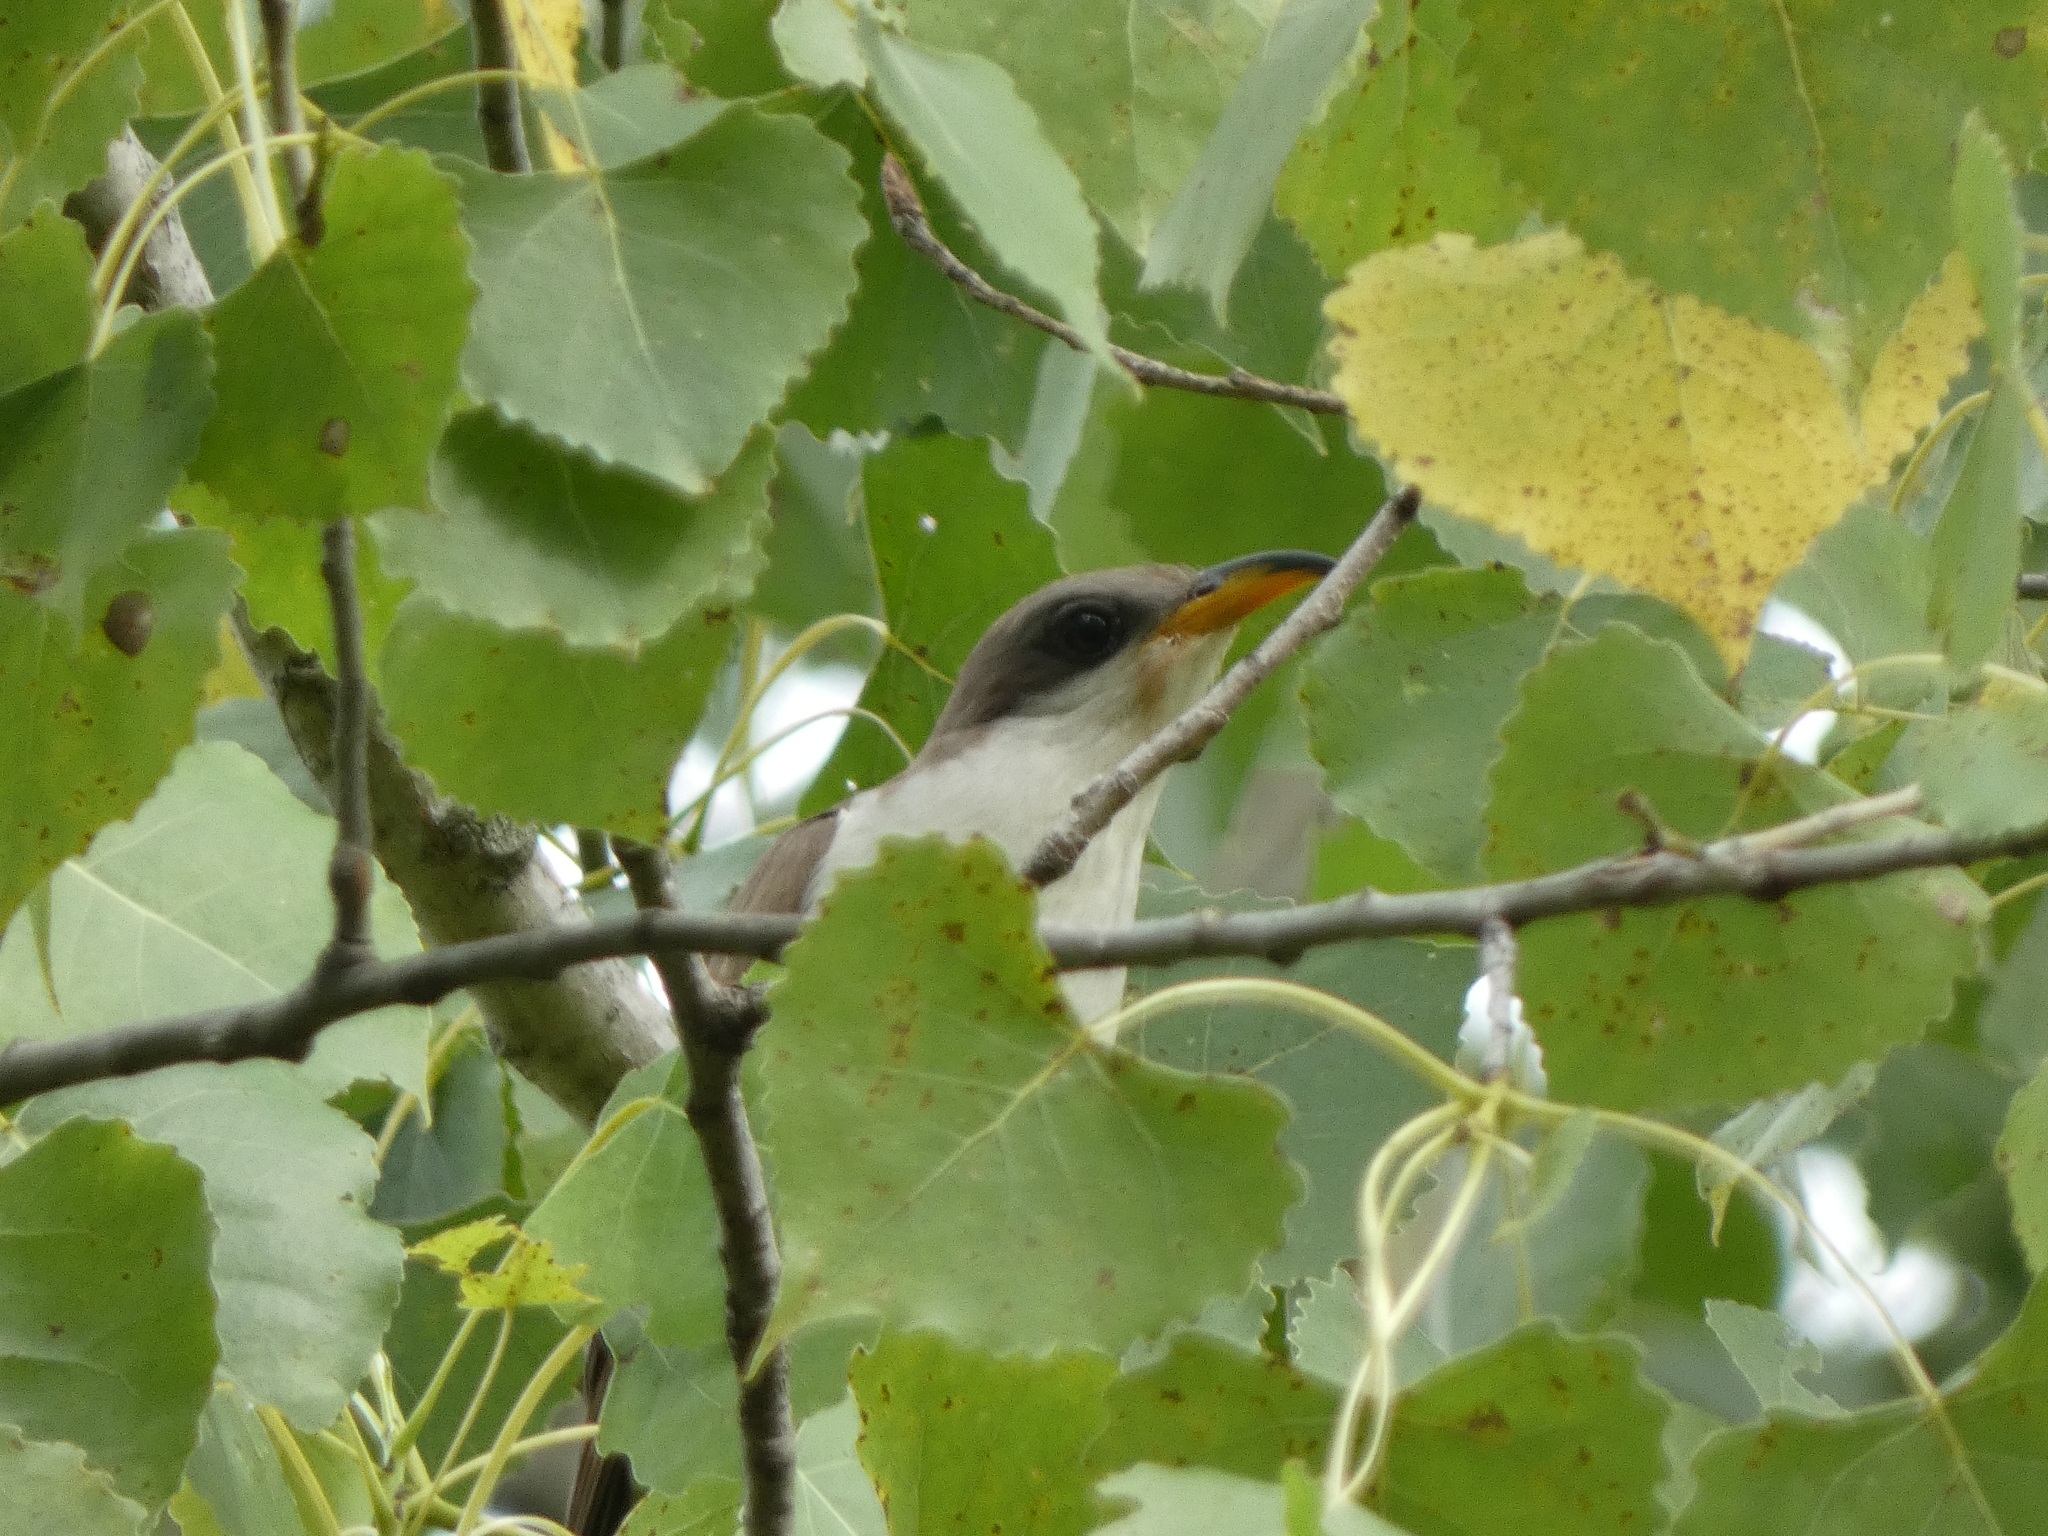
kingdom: Animalia
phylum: Chordata
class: Aves
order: Cuculiformes
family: Cuculidae
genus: Coccyzus
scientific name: Coccyzus americanus
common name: Yellow-billed cuckoo
